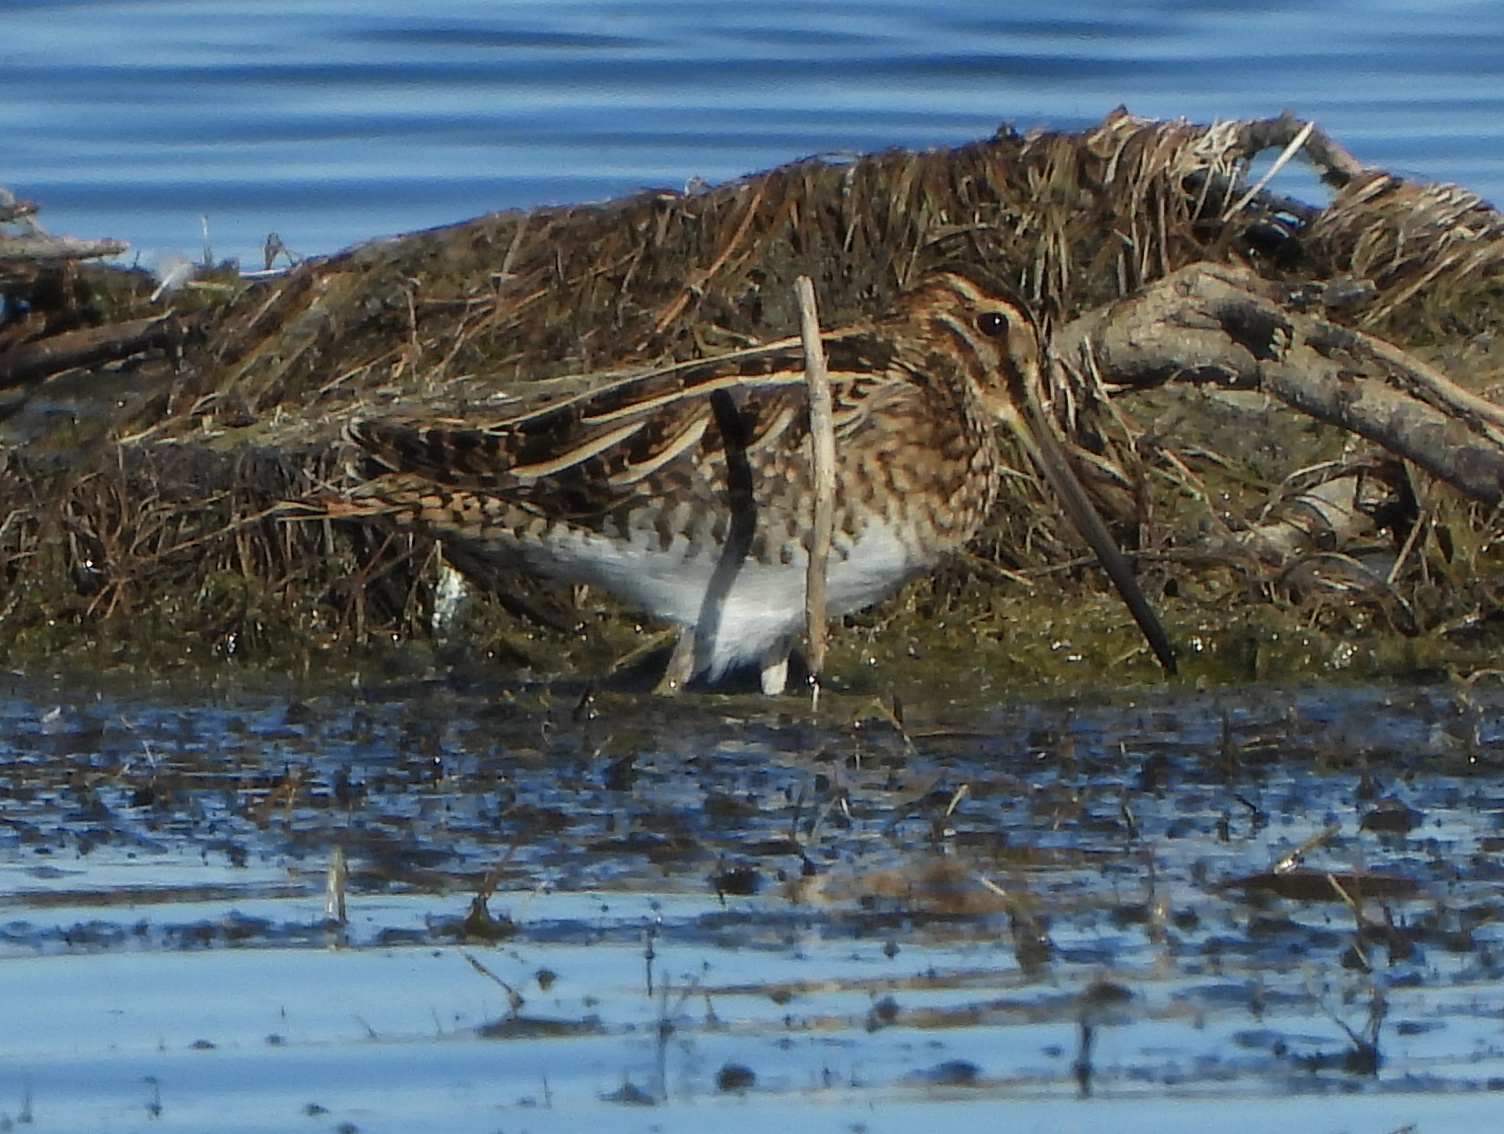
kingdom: Animalia
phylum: Chordata
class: Aves
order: Charadriiformes
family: Scolopacidae
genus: Gallinago
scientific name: Gallinago gallinago
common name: Common snipe
